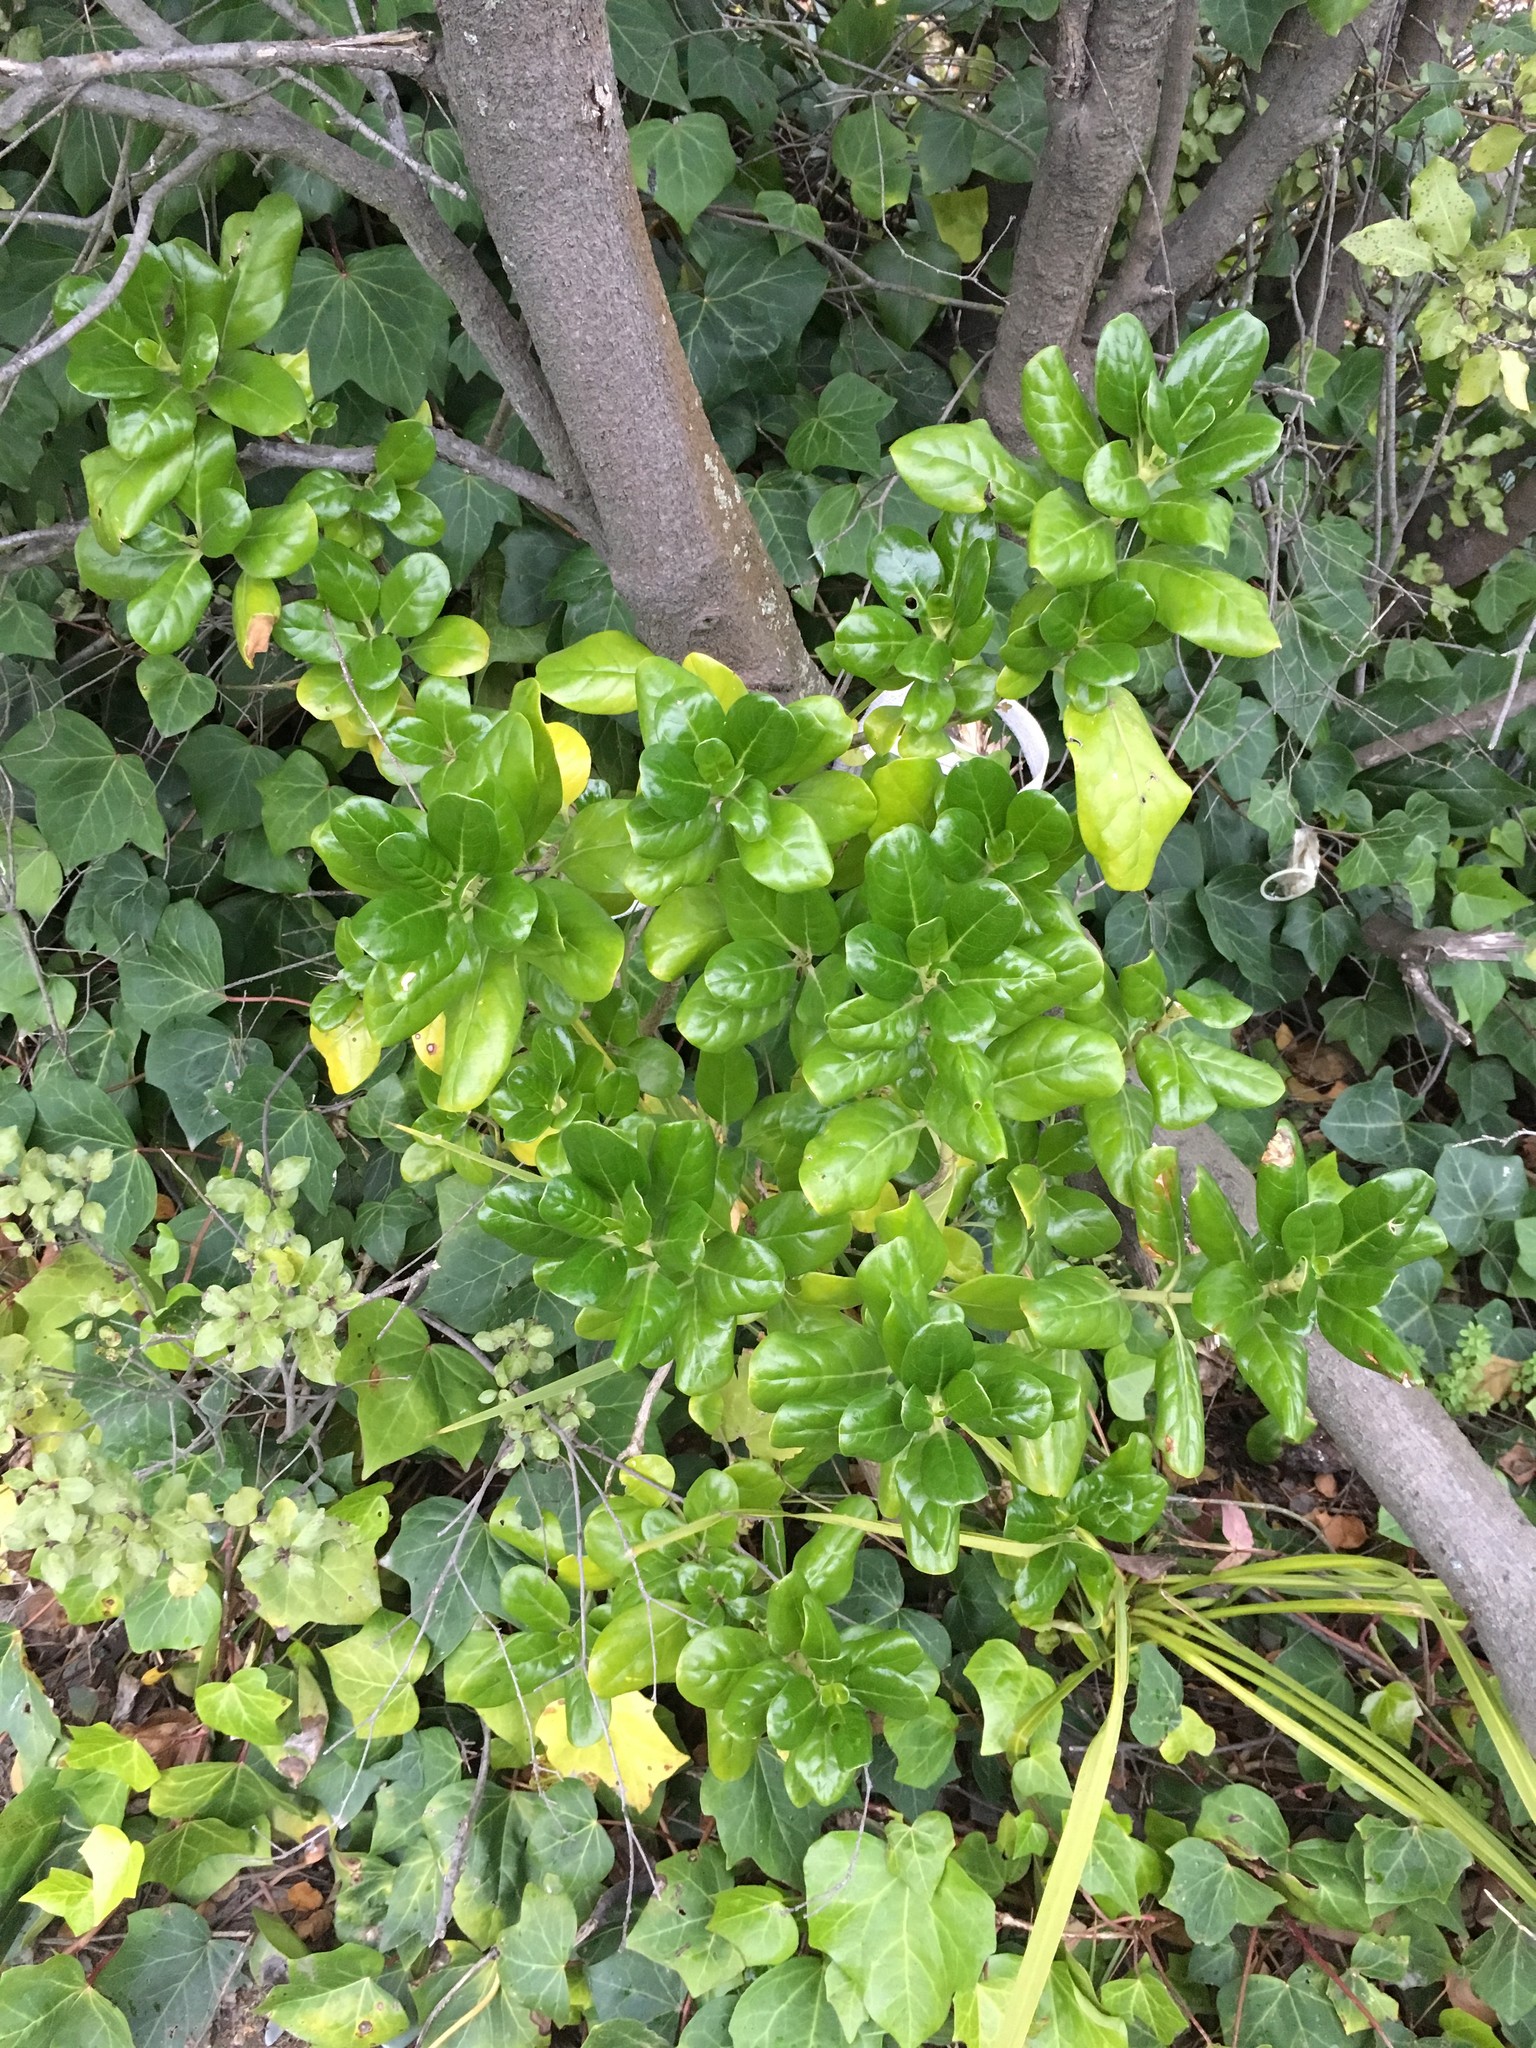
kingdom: Plantae
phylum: Tracheophyta
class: Magnoliopsida
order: Gentianales
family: Rubiaceae
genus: Coprosma
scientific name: Coprosma repens
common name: Tree bedstraw
